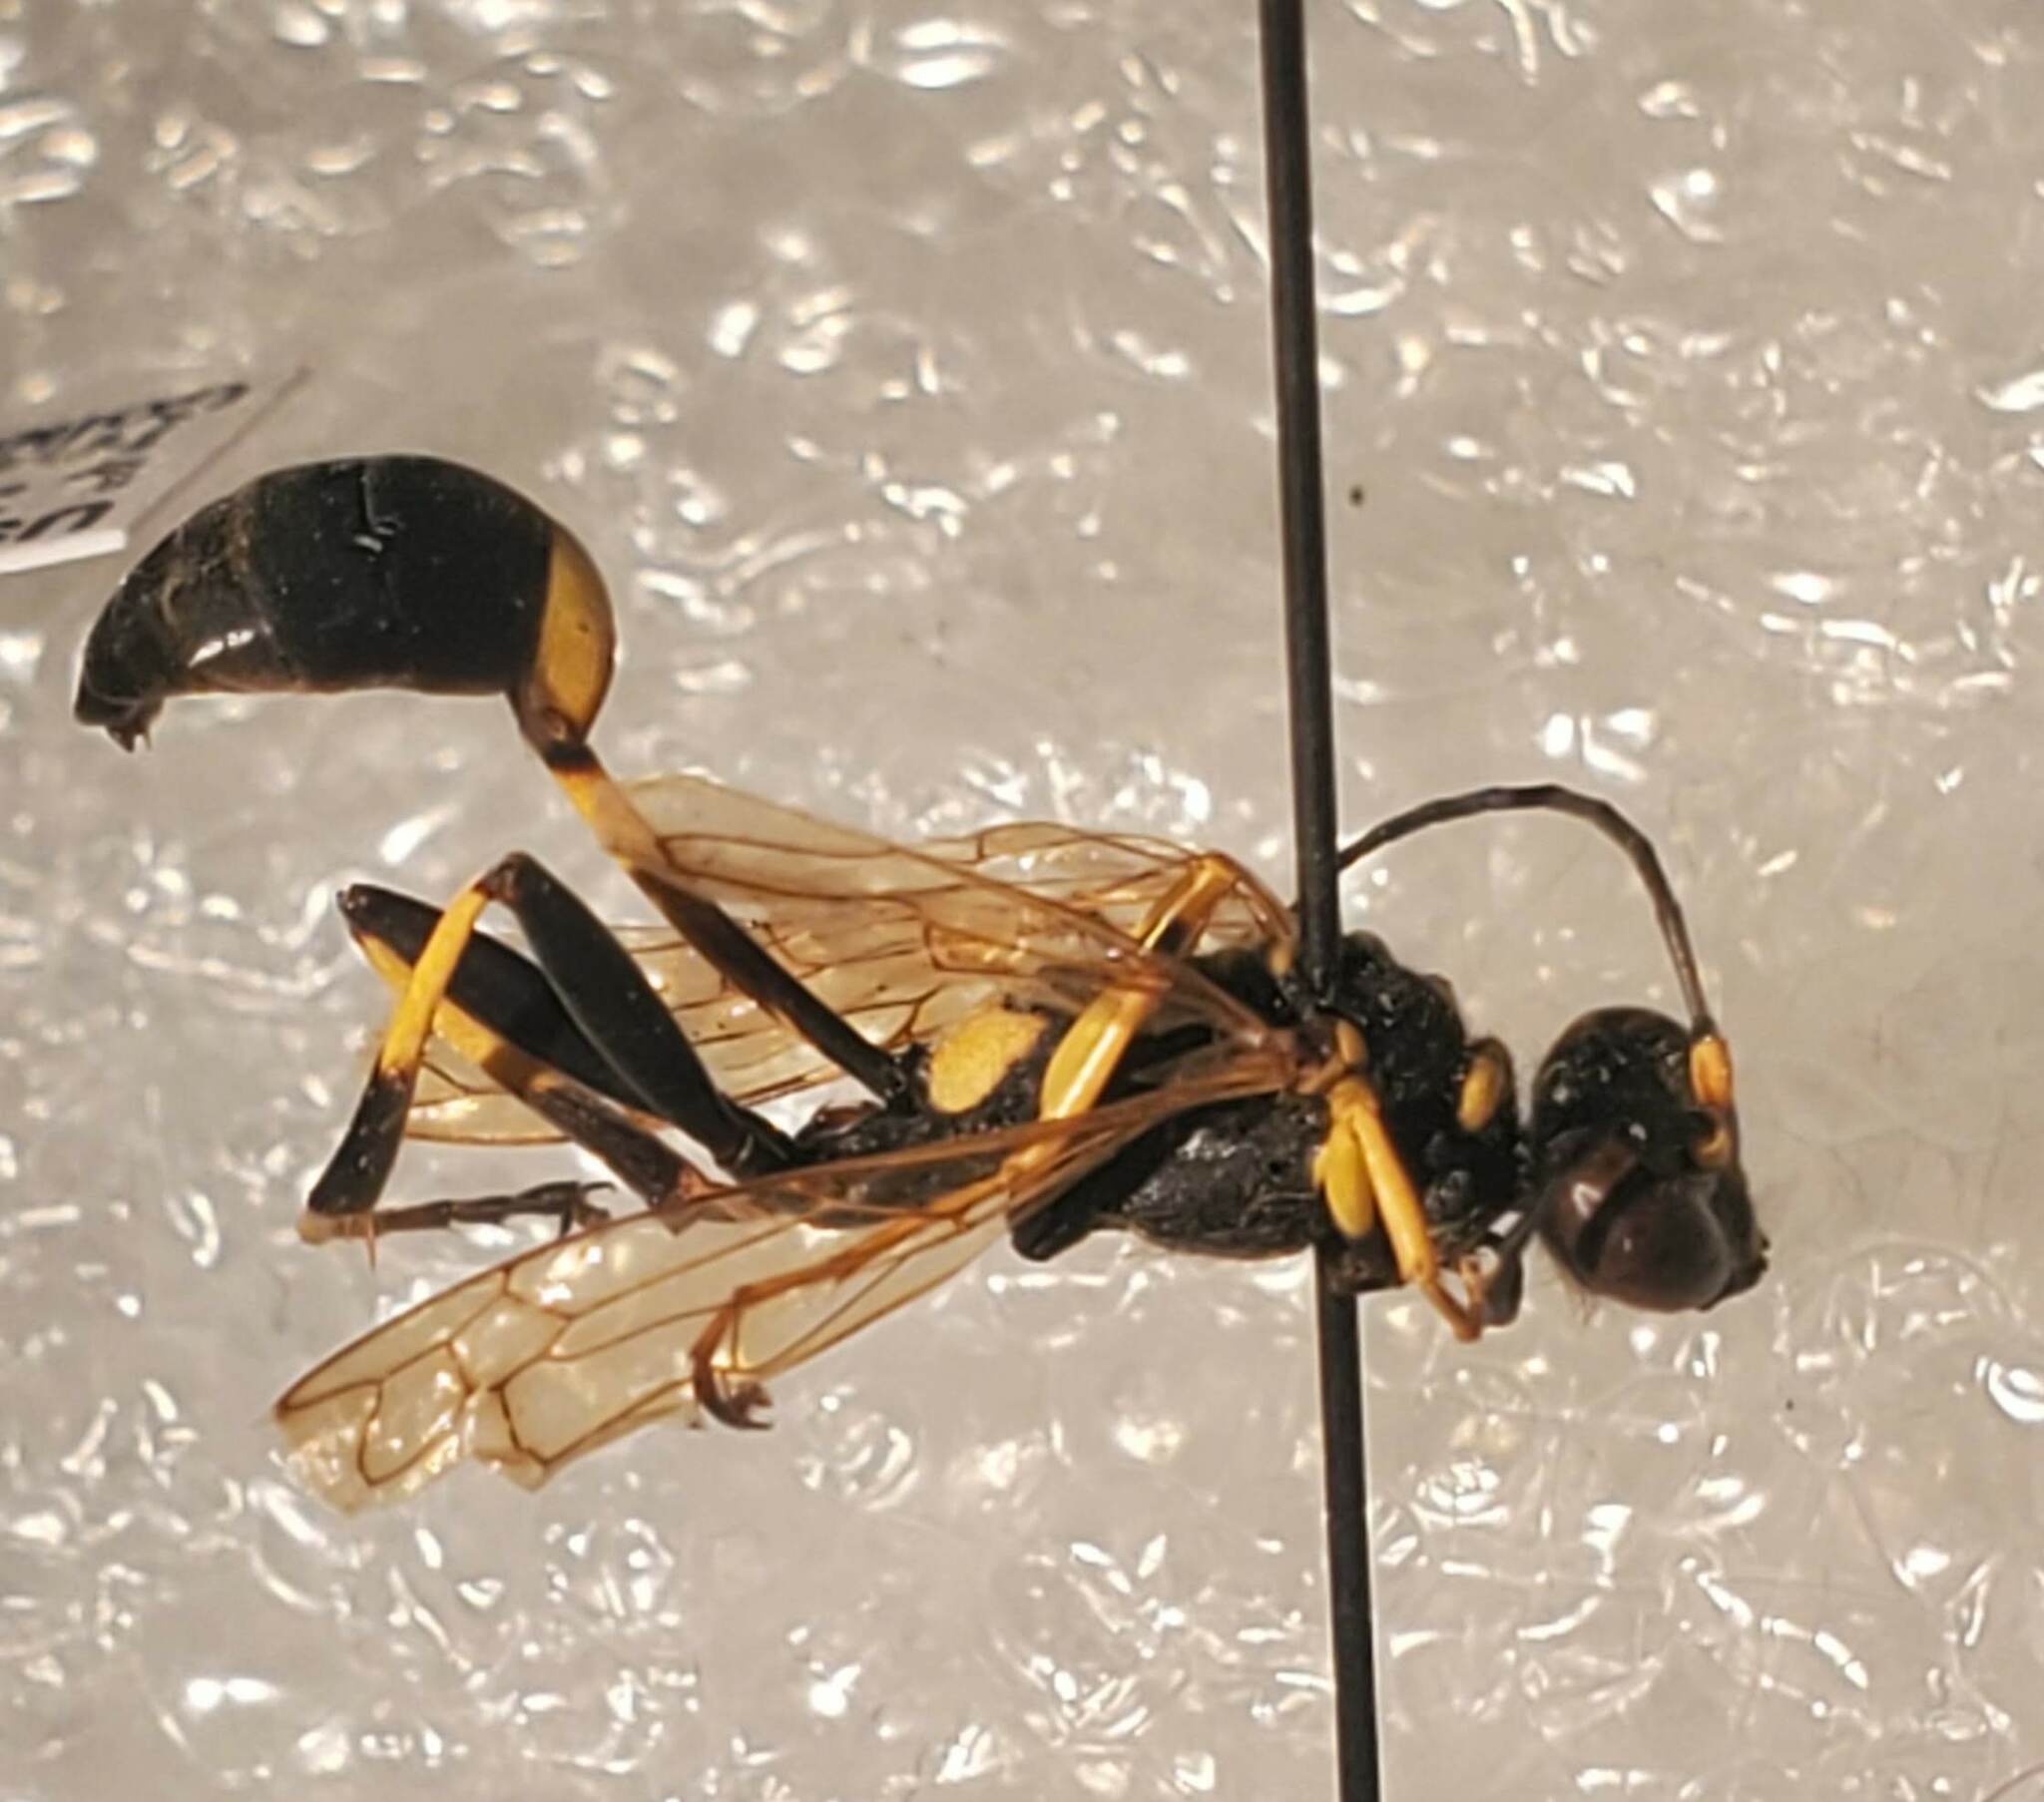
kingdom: Animalia
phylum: Arthropoda
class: Insecta
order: Hymenoptera
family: Sphecidae
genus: Sceliphron
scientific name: Sceliphron caementarium
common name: Mud dauber
